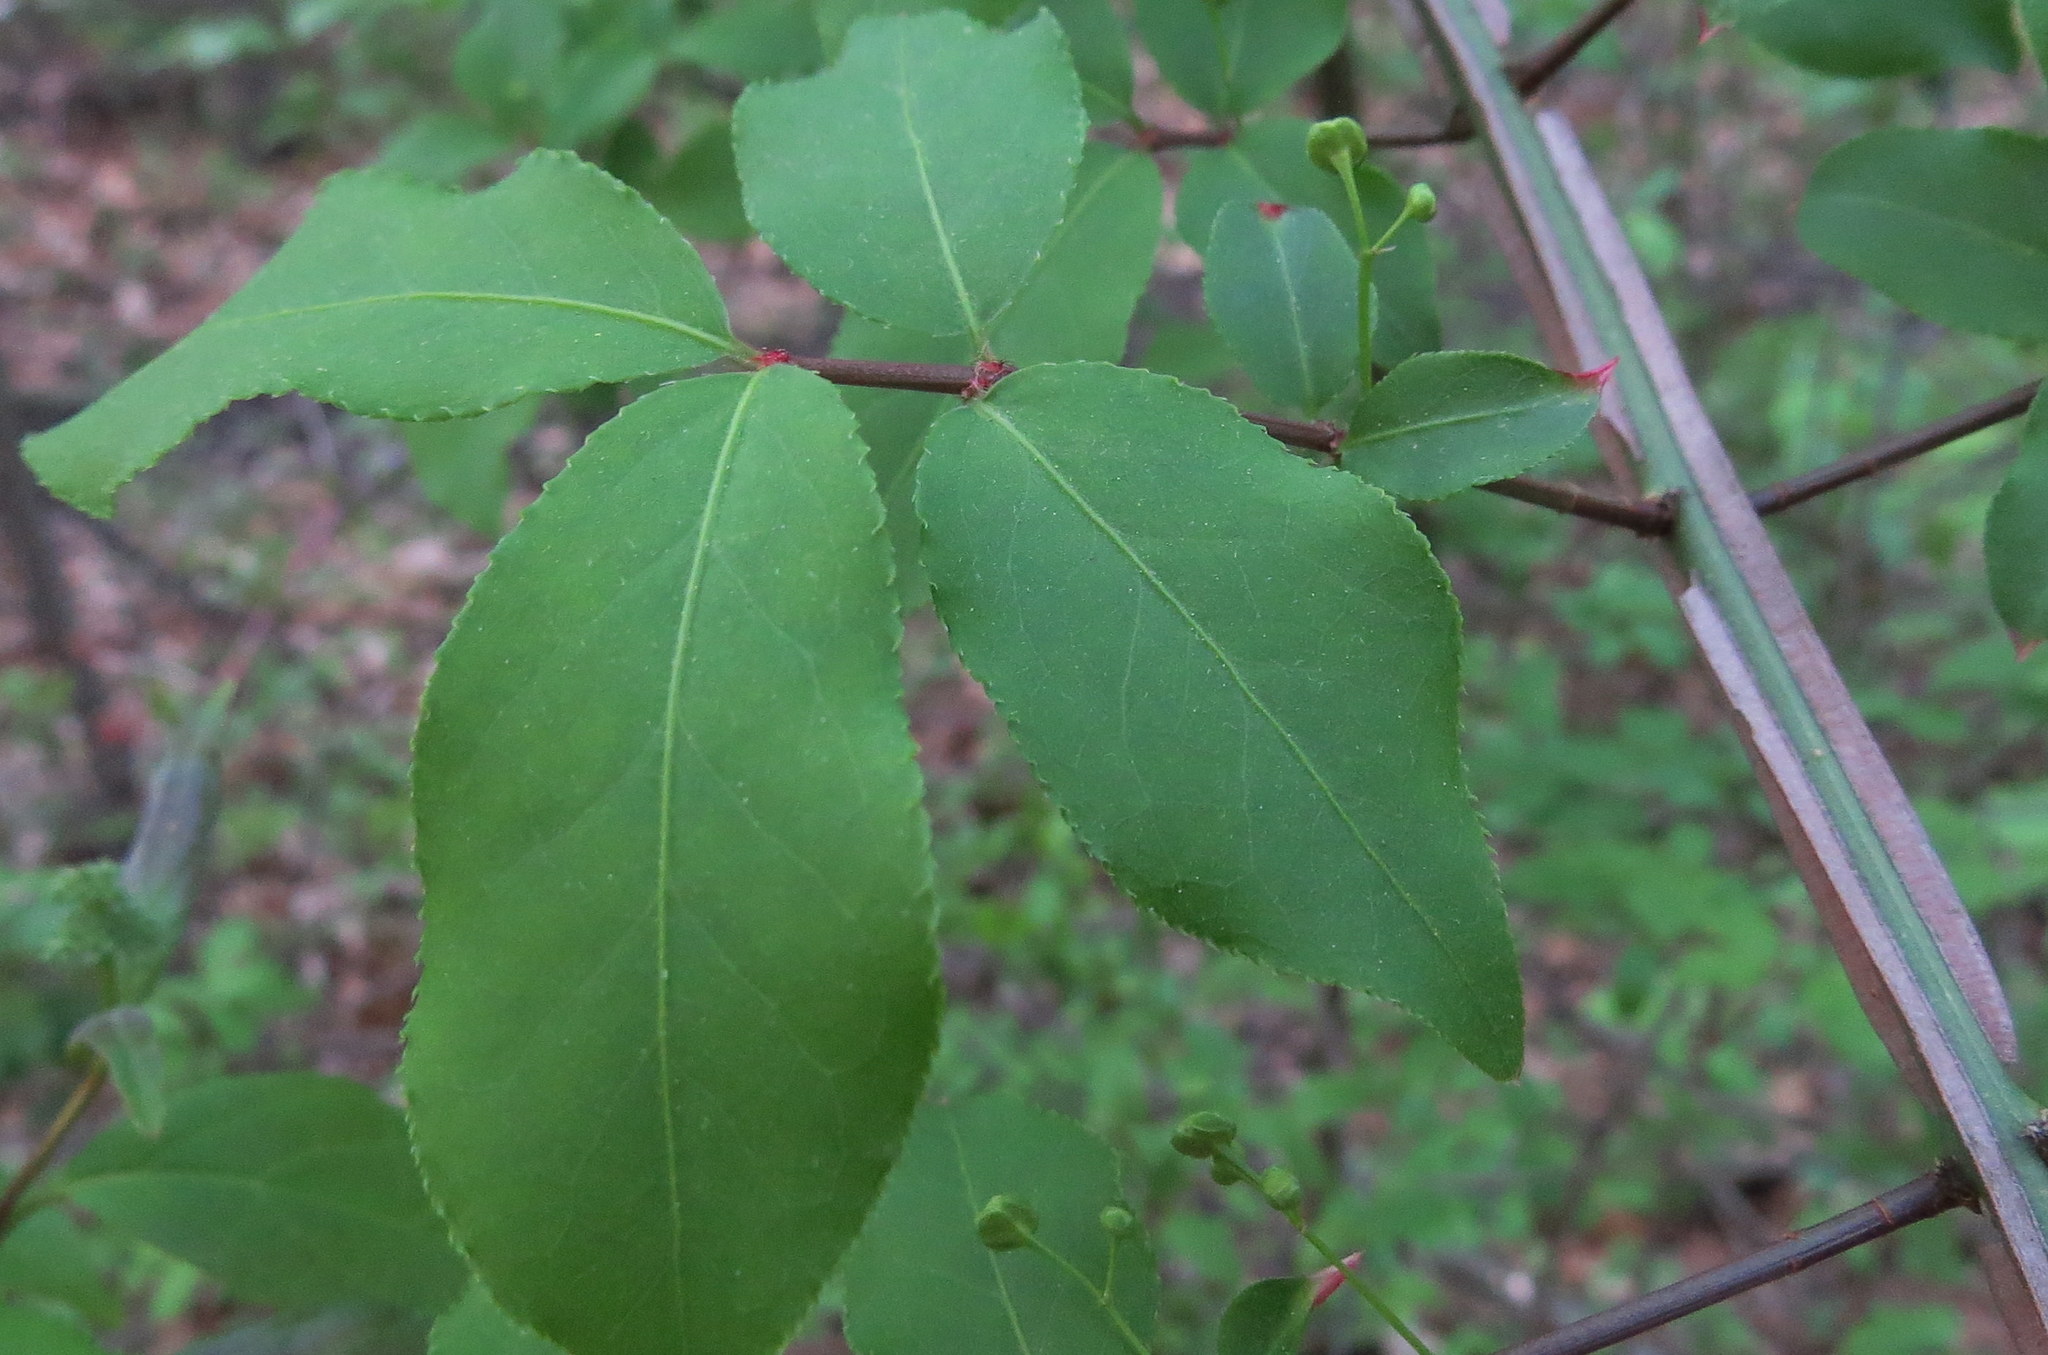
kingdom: Plantae
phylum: Tracheophyta
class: Magnoliopsida
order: Celastrales
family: Celastraceae
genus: Euonymus
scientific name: Euonymus alatus
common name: Winged euonymus
